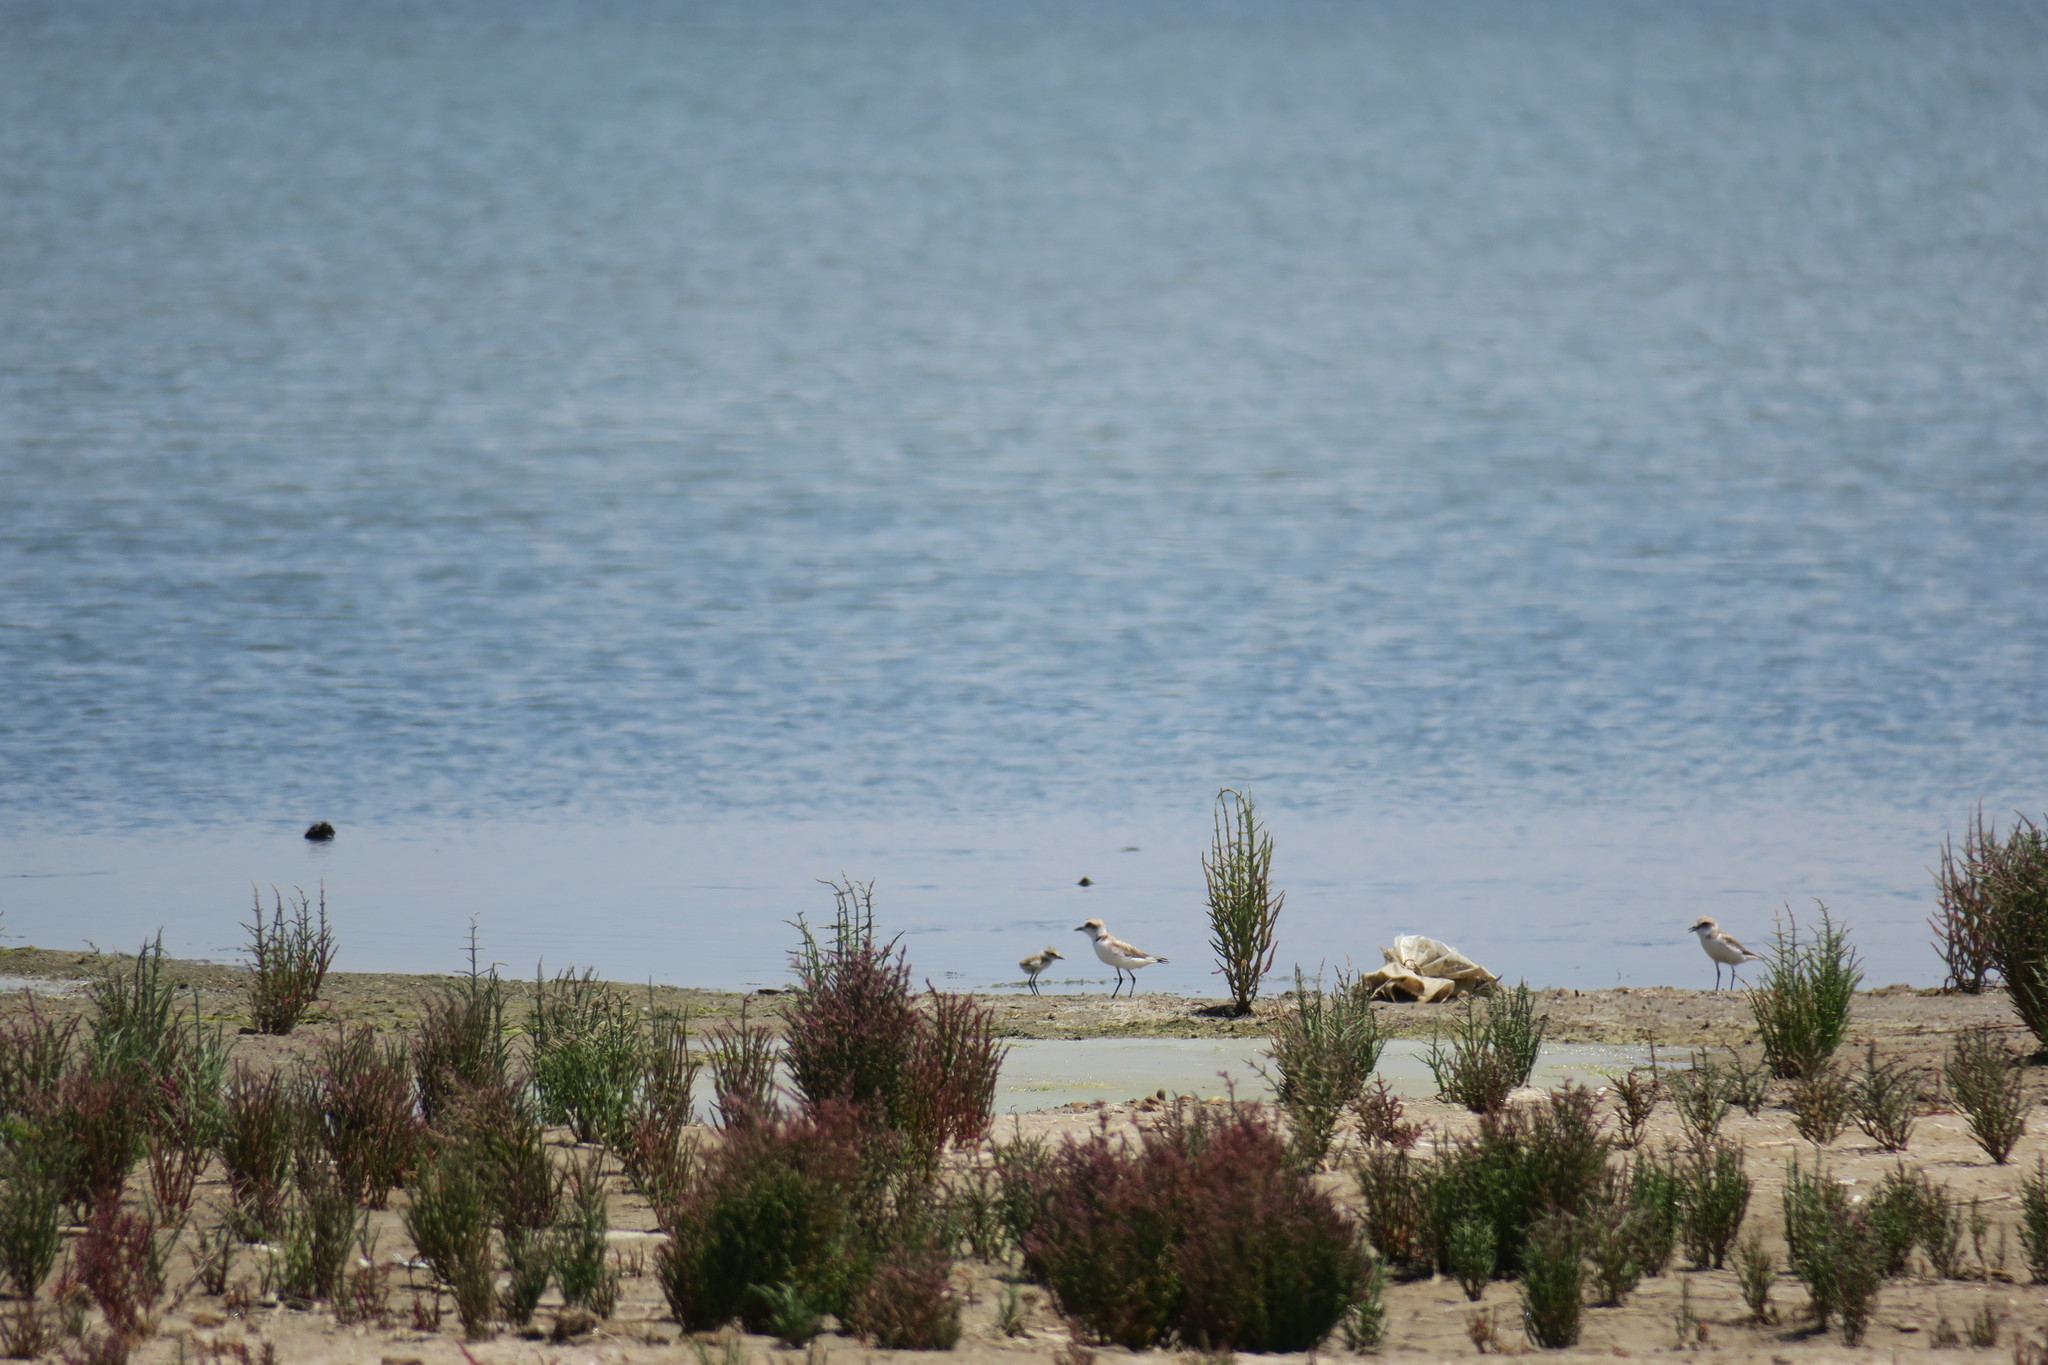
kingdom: Animalia
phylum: Chordata
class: Aves
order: Charadriiformes
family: Charadriidae
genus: Charadrius
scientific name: Charadrius alexandrinus
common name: Kentish plover
